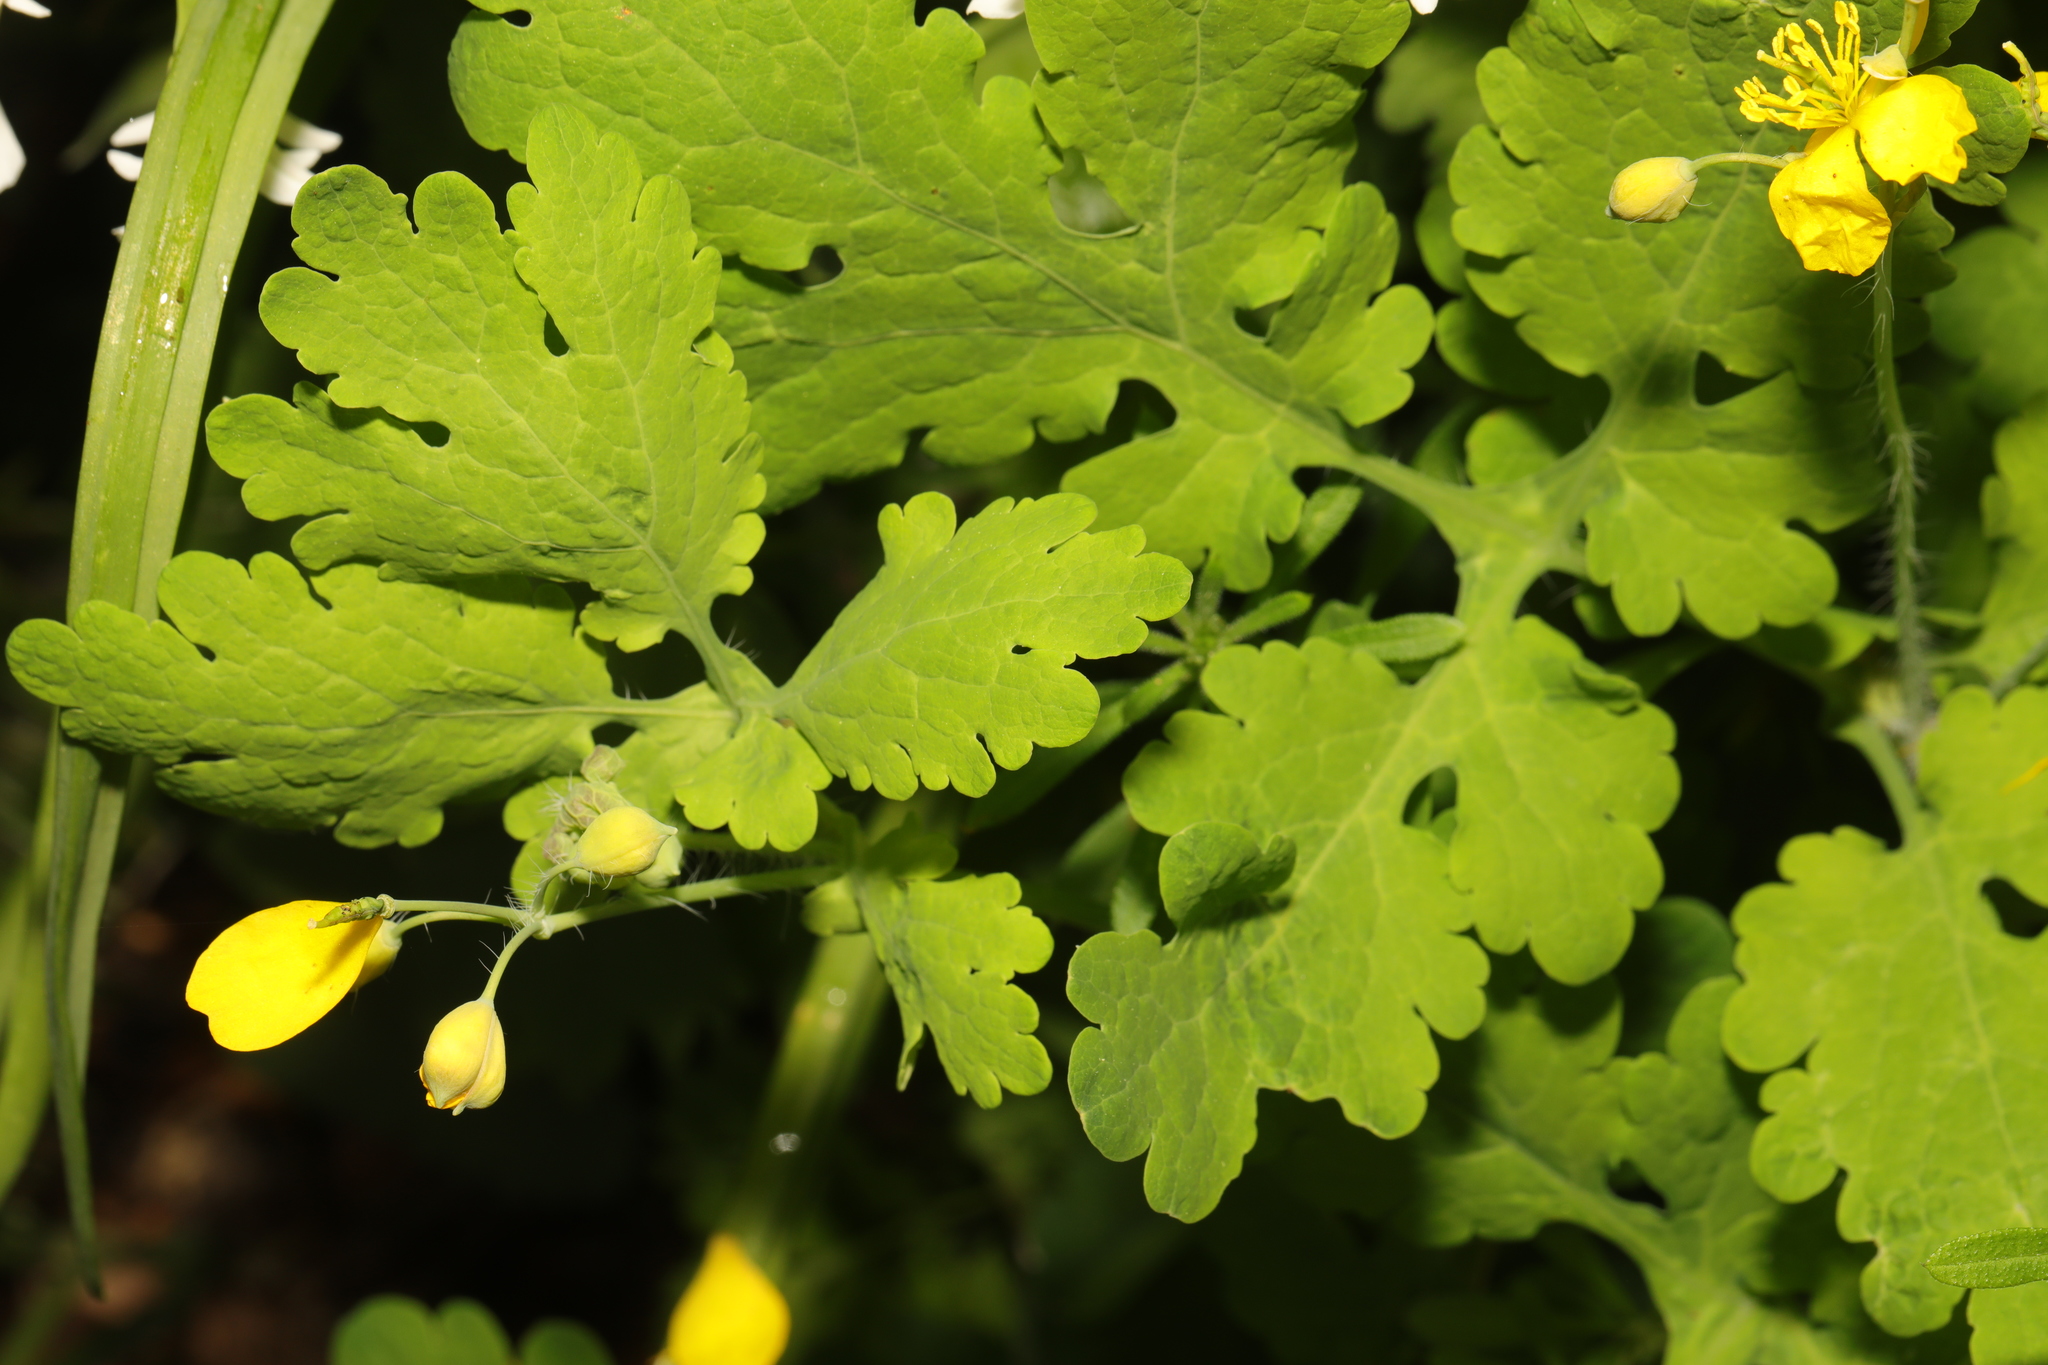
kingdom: Plantae
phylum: Tracheophyta
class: Magnoliopsida
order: Ranunculales
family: Papaveraceae
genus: Chelidonium
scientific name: Chelidonium majus
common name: Greater celandine
